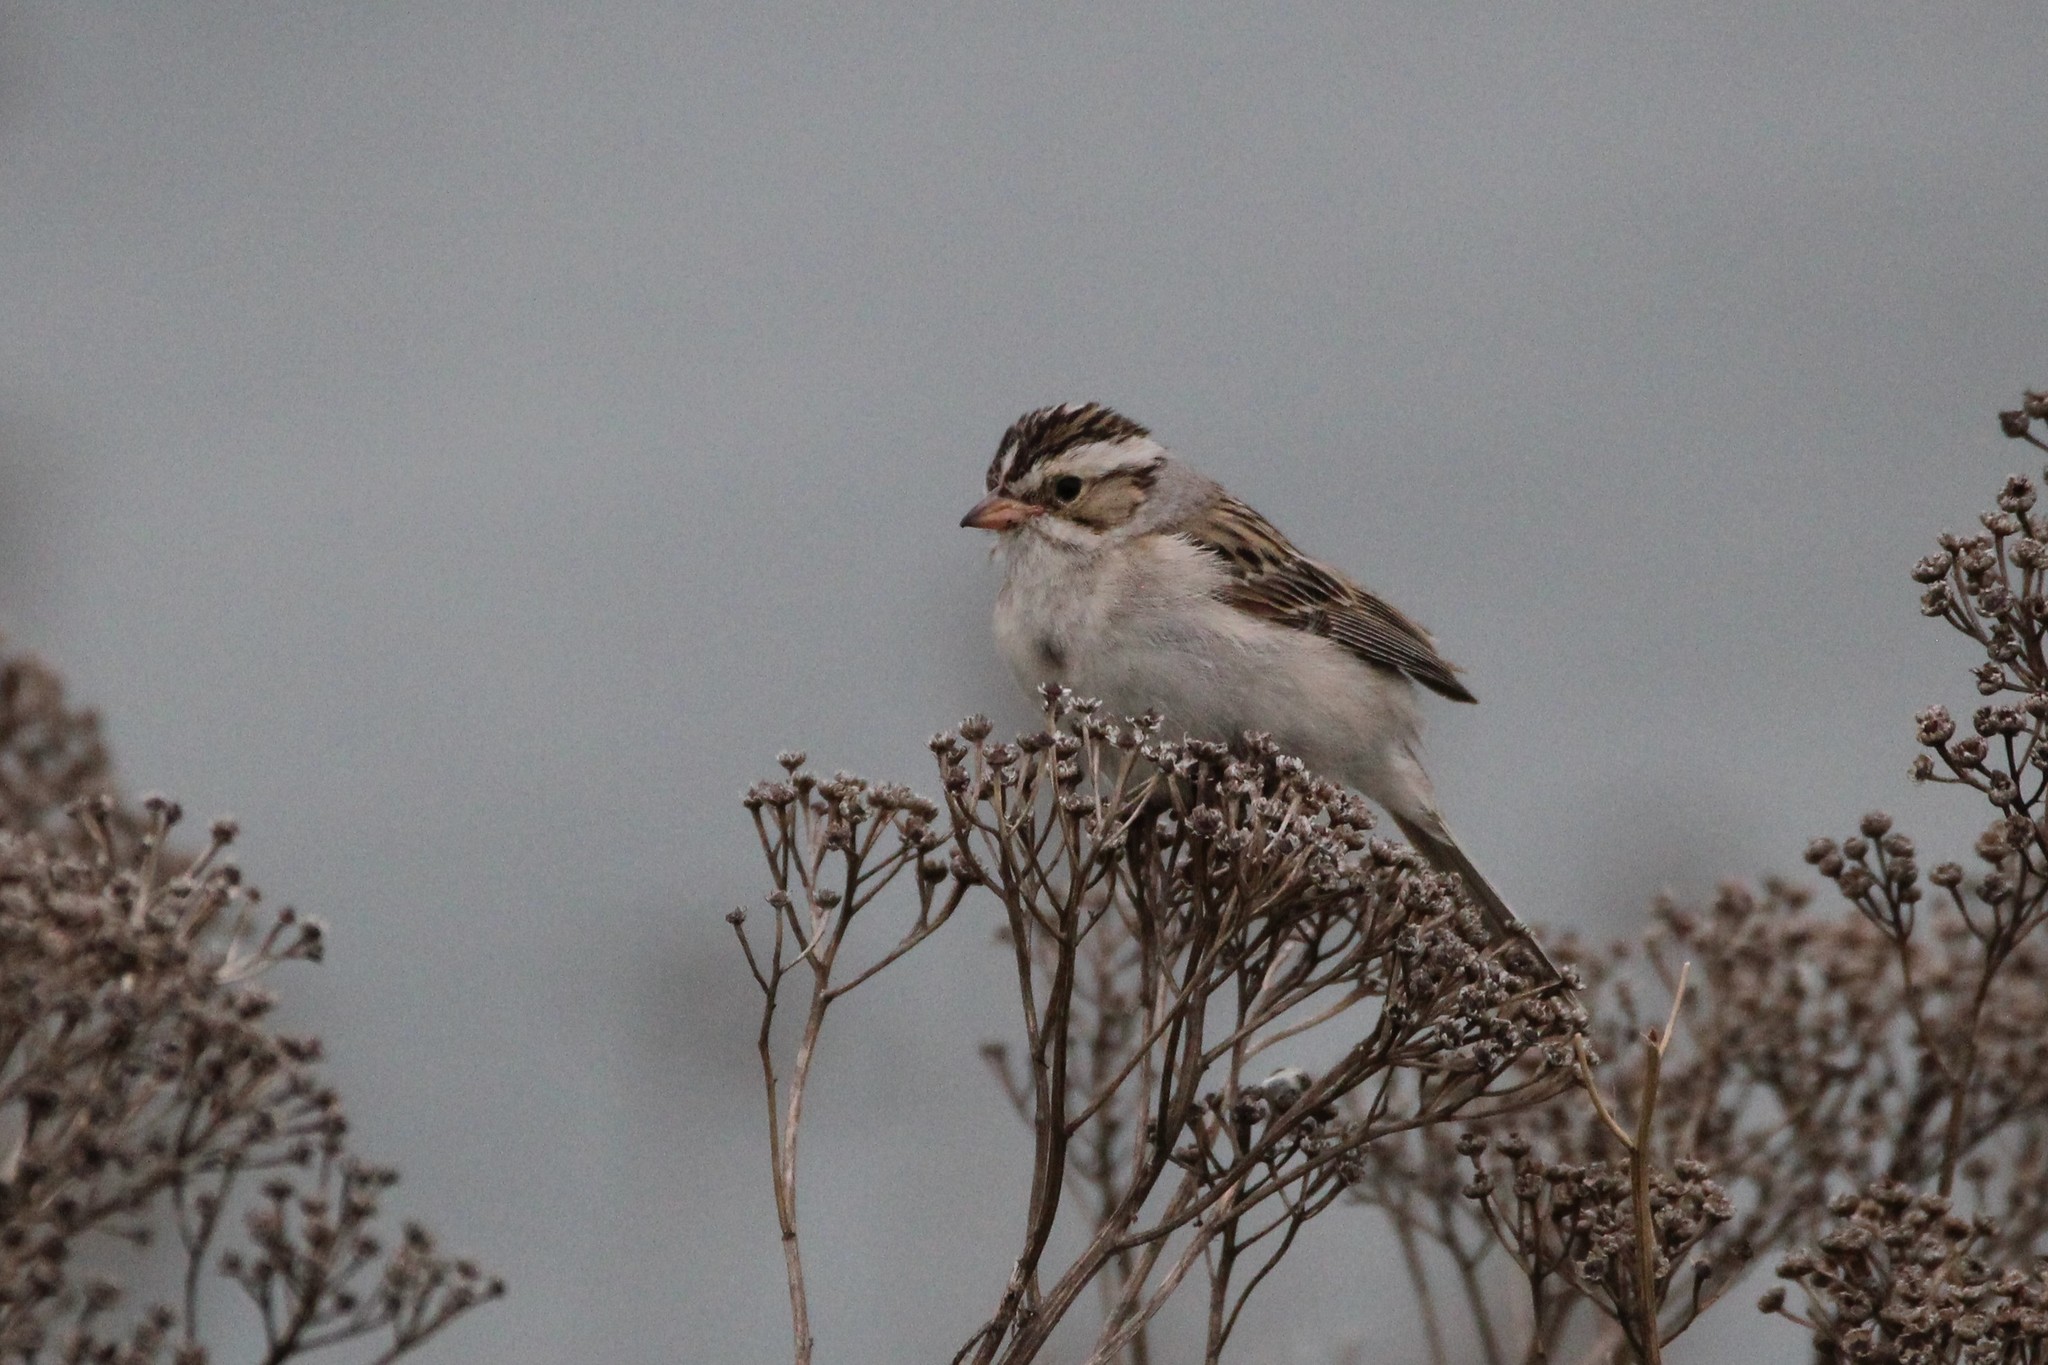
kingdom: Animalia
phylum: Chordata
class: Aves
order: Passeriformes
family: Passerellidae
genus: Spizella
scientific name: Spizella pallida
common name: Clay-colored sparrow
